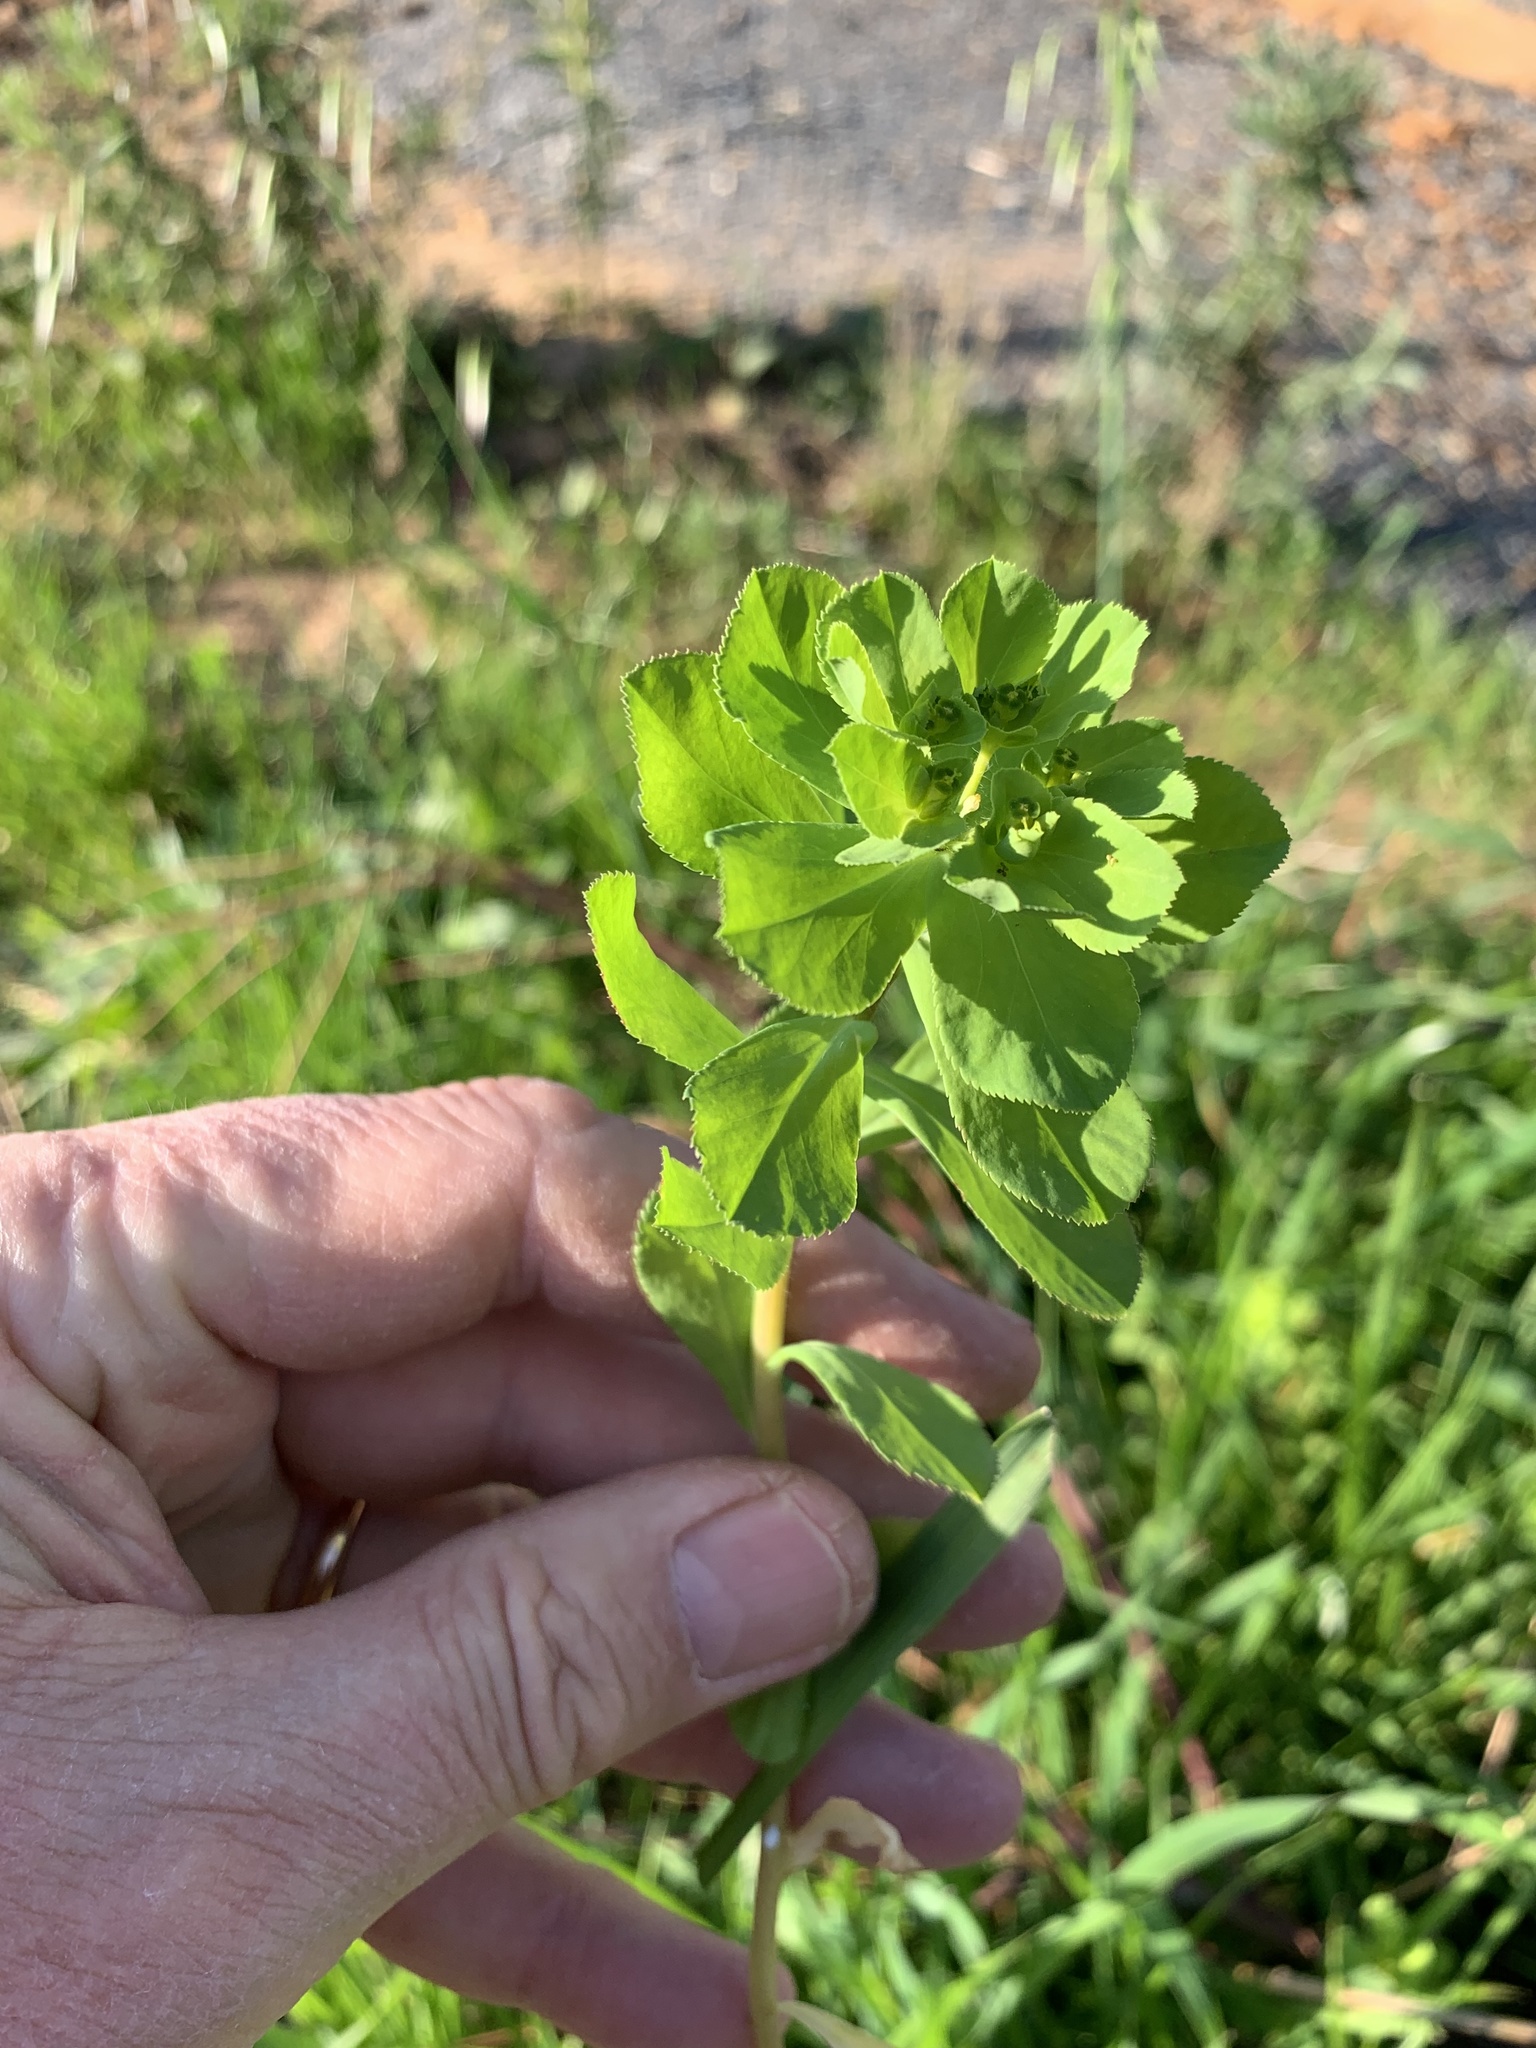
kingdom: Plantae
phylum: Tracheophyta
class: Magnoliopsida
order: Malpighiales
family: Euphorbiaceae
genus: Euphorbia
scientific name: Euphorbia helioscopia
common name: Sun spurge
